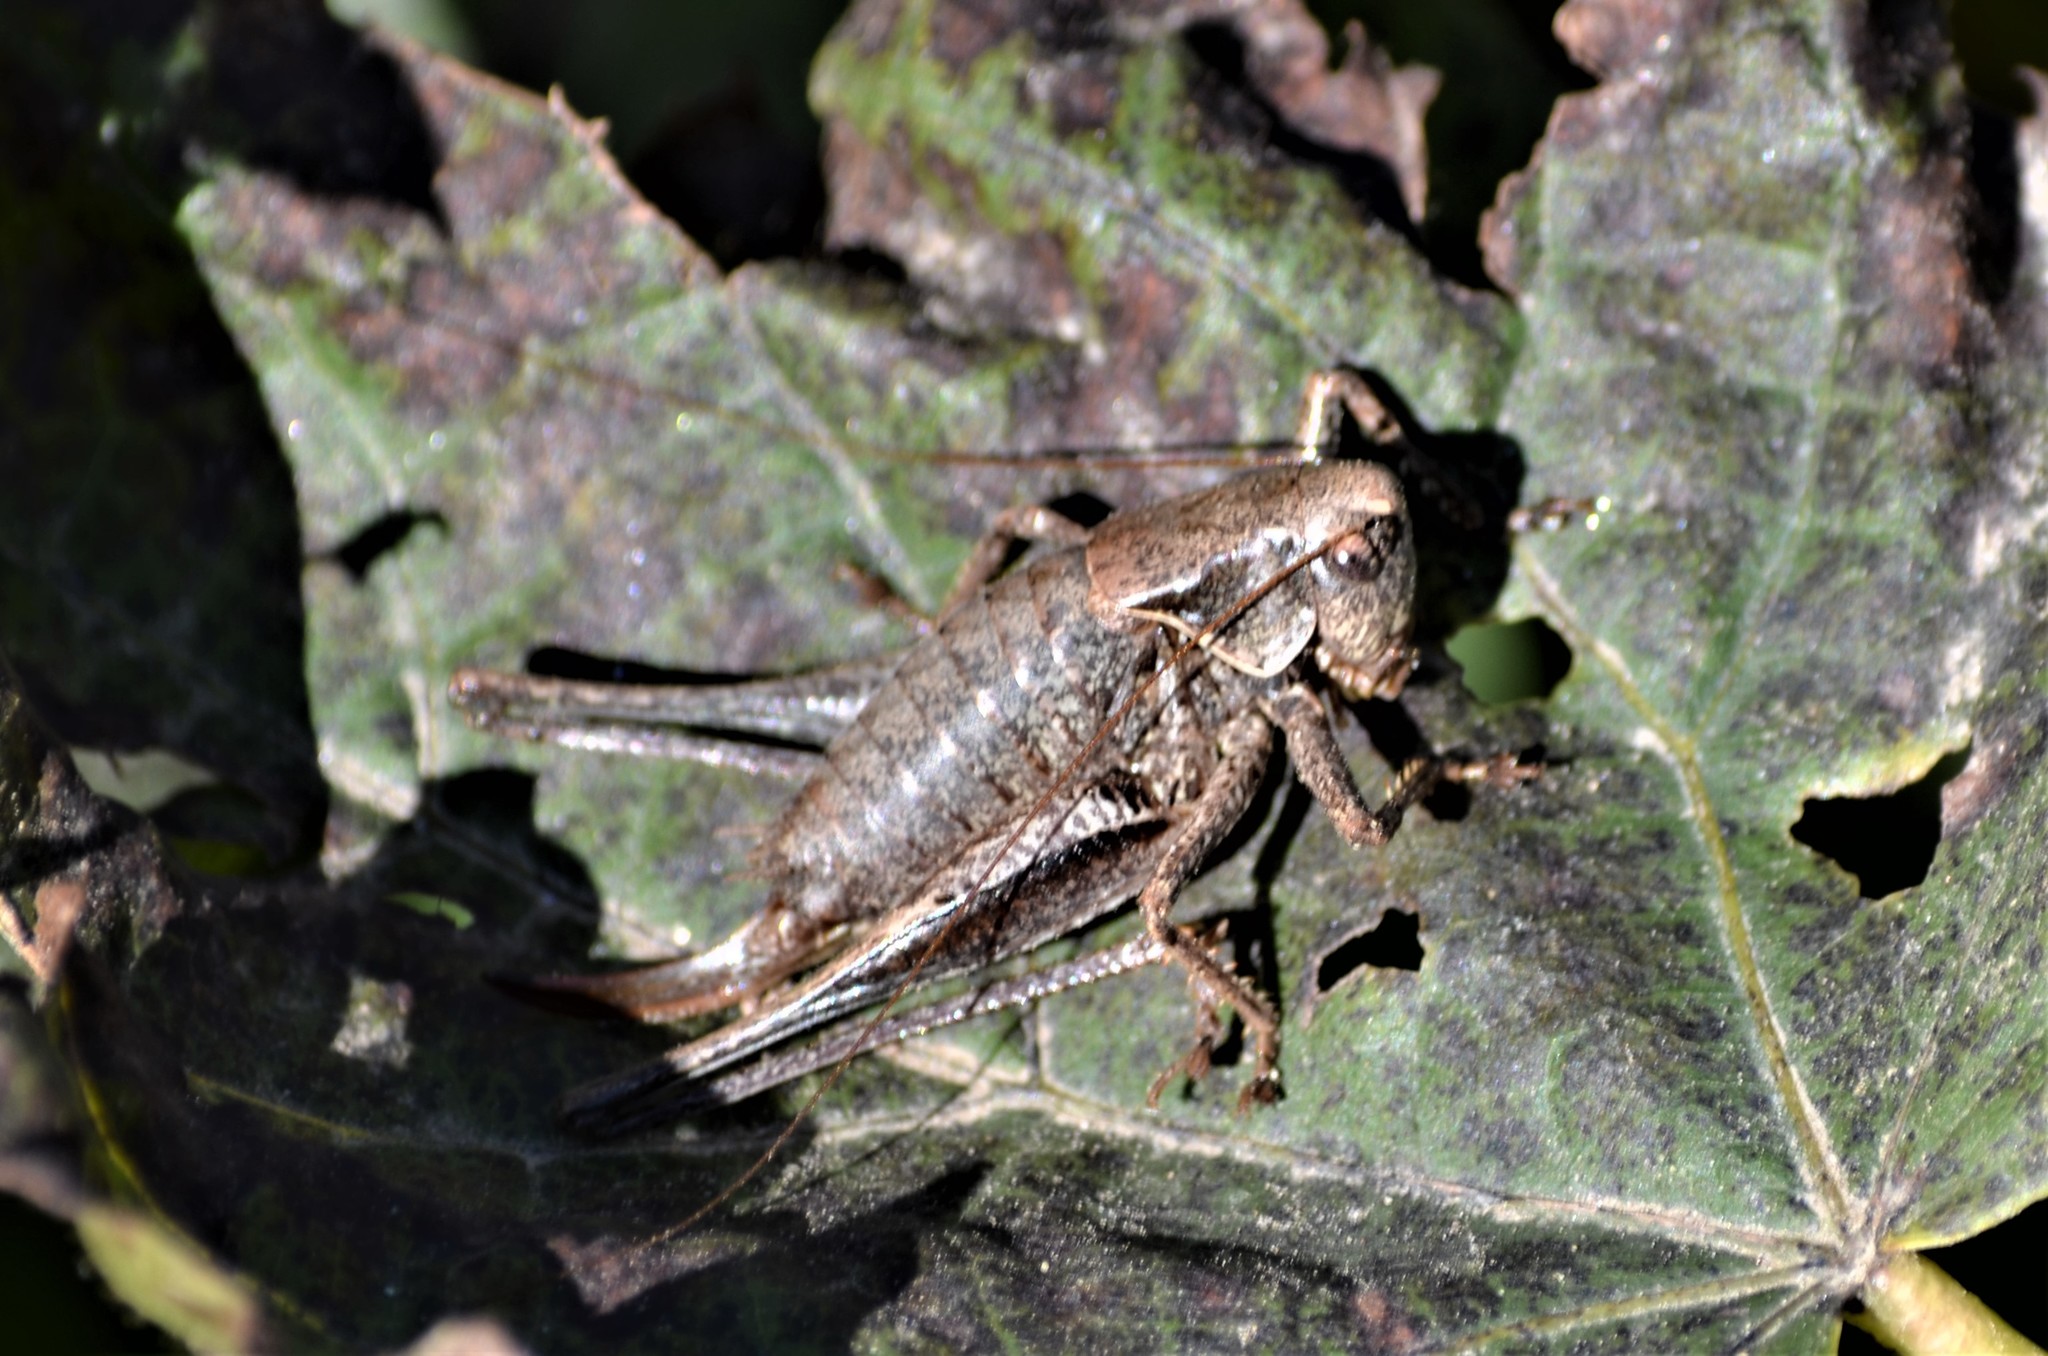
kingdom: Animalia
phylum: Arthropoda
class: Insecta
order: Orthoptera
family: Tettigoniidae
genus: Pholidoptera
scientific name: Pholidoptera griseoaptera
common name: Dark bush-cricket
